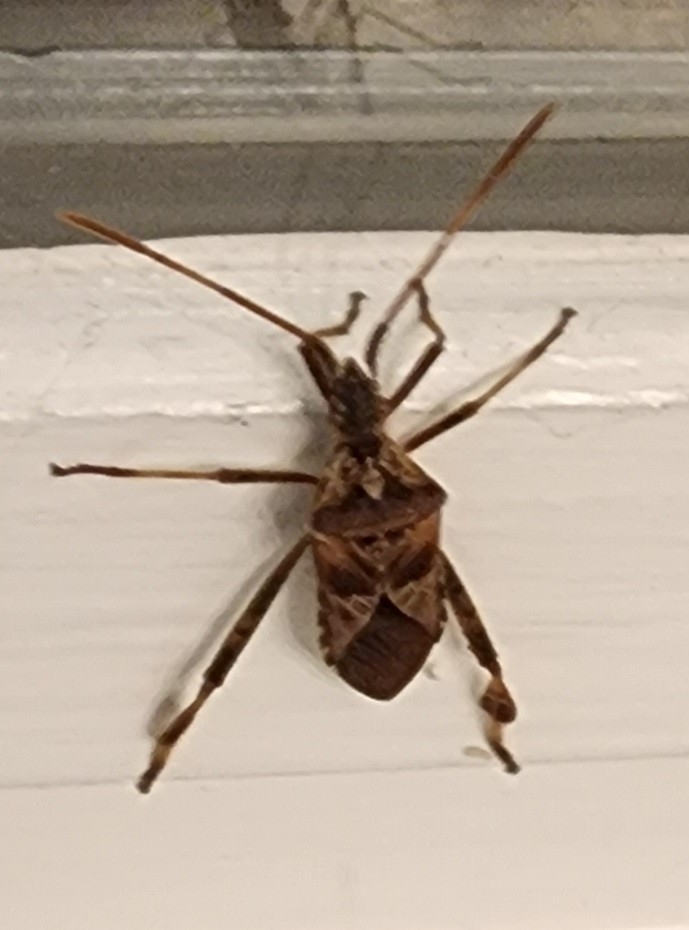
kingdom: Animalia
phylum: Arthropoda
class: Insecta
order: Hemiptera
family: Coreidae
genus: Leptoglossus
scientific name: Leptoglossus occidentalis
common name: Western conifer-seed bug
